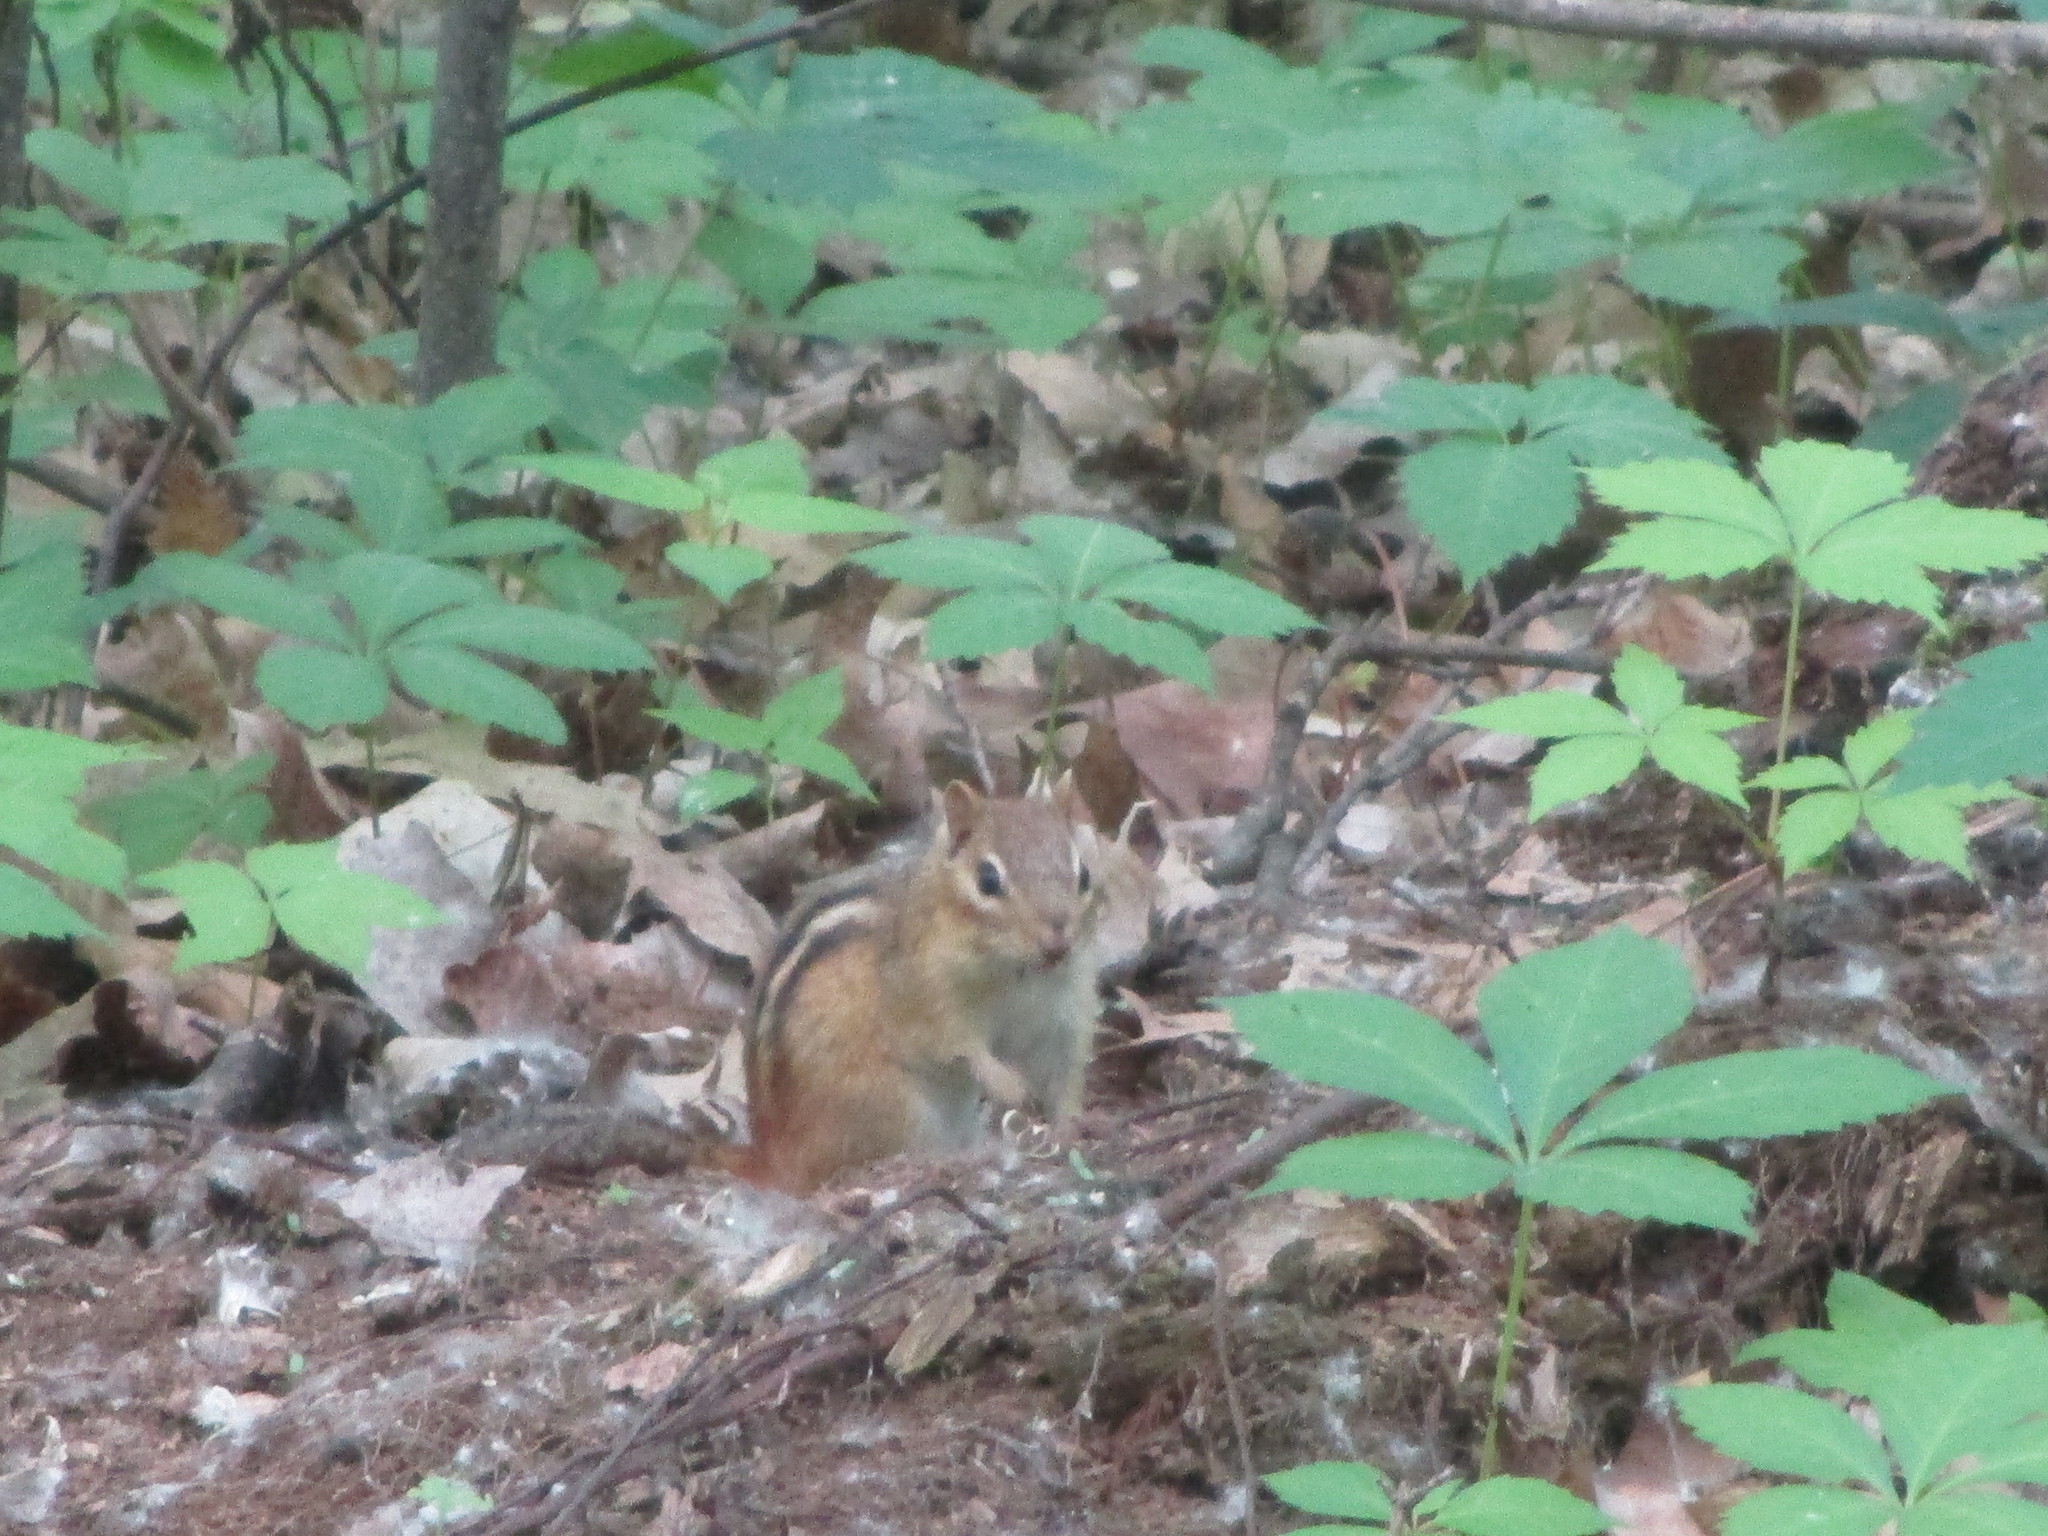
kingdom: Animalia
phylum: Chordata
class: Mammalia
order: Rodentia
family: Sciuridae
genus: Tamias
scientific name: Tamias striatus
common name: Eastern chipmunk
